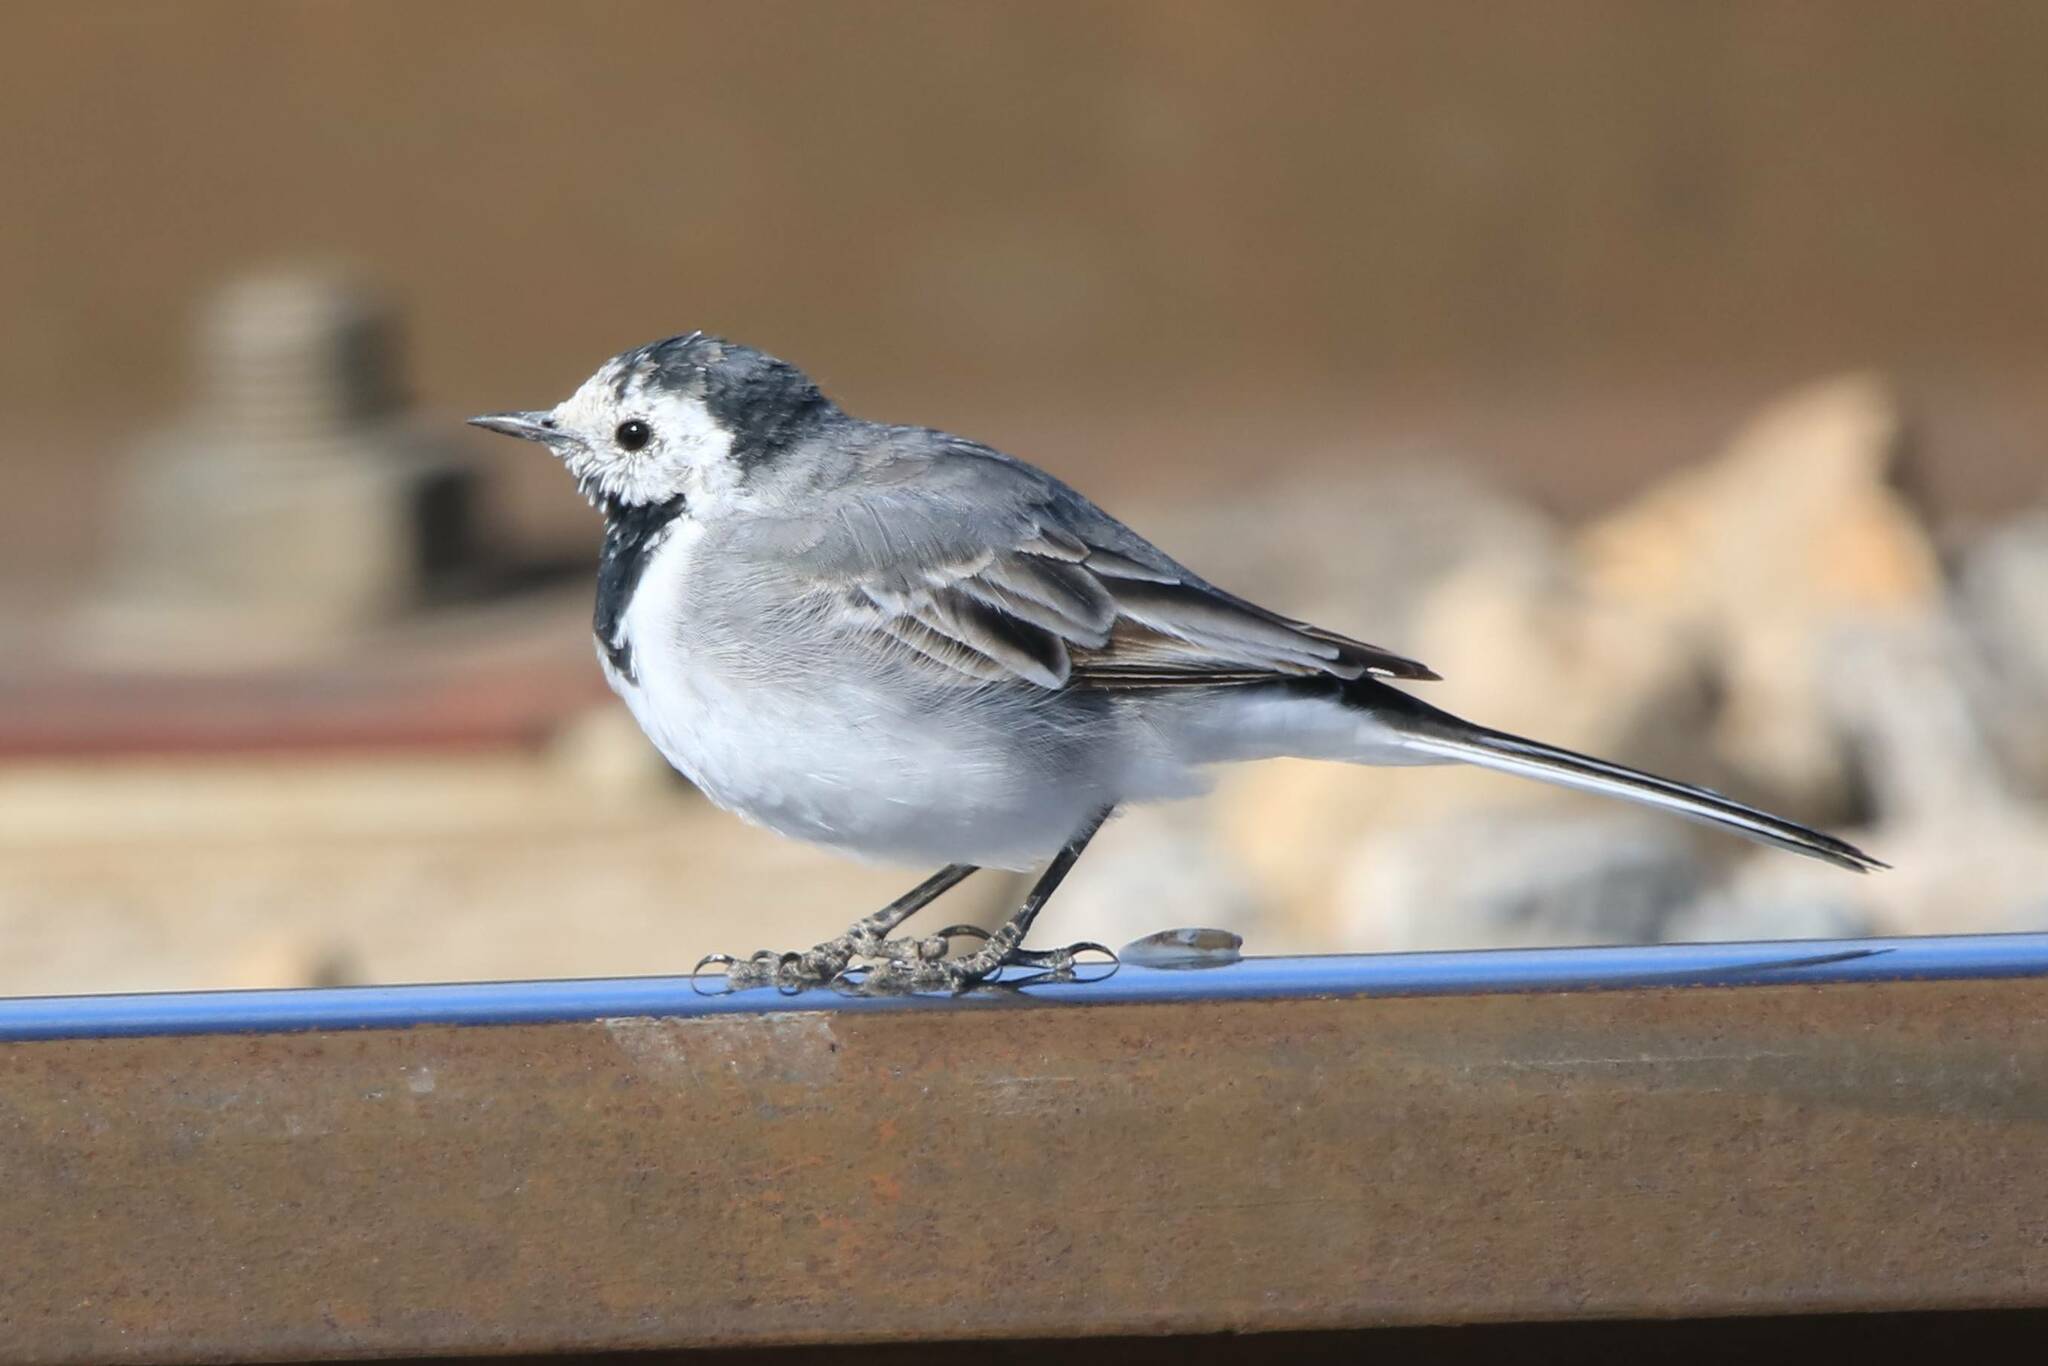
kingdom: Animalia
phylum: Chordata
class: Aves
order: Passeriformes
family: Motacillidae
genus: Motacilla
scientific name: Motacilla alba
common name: White wagtail
